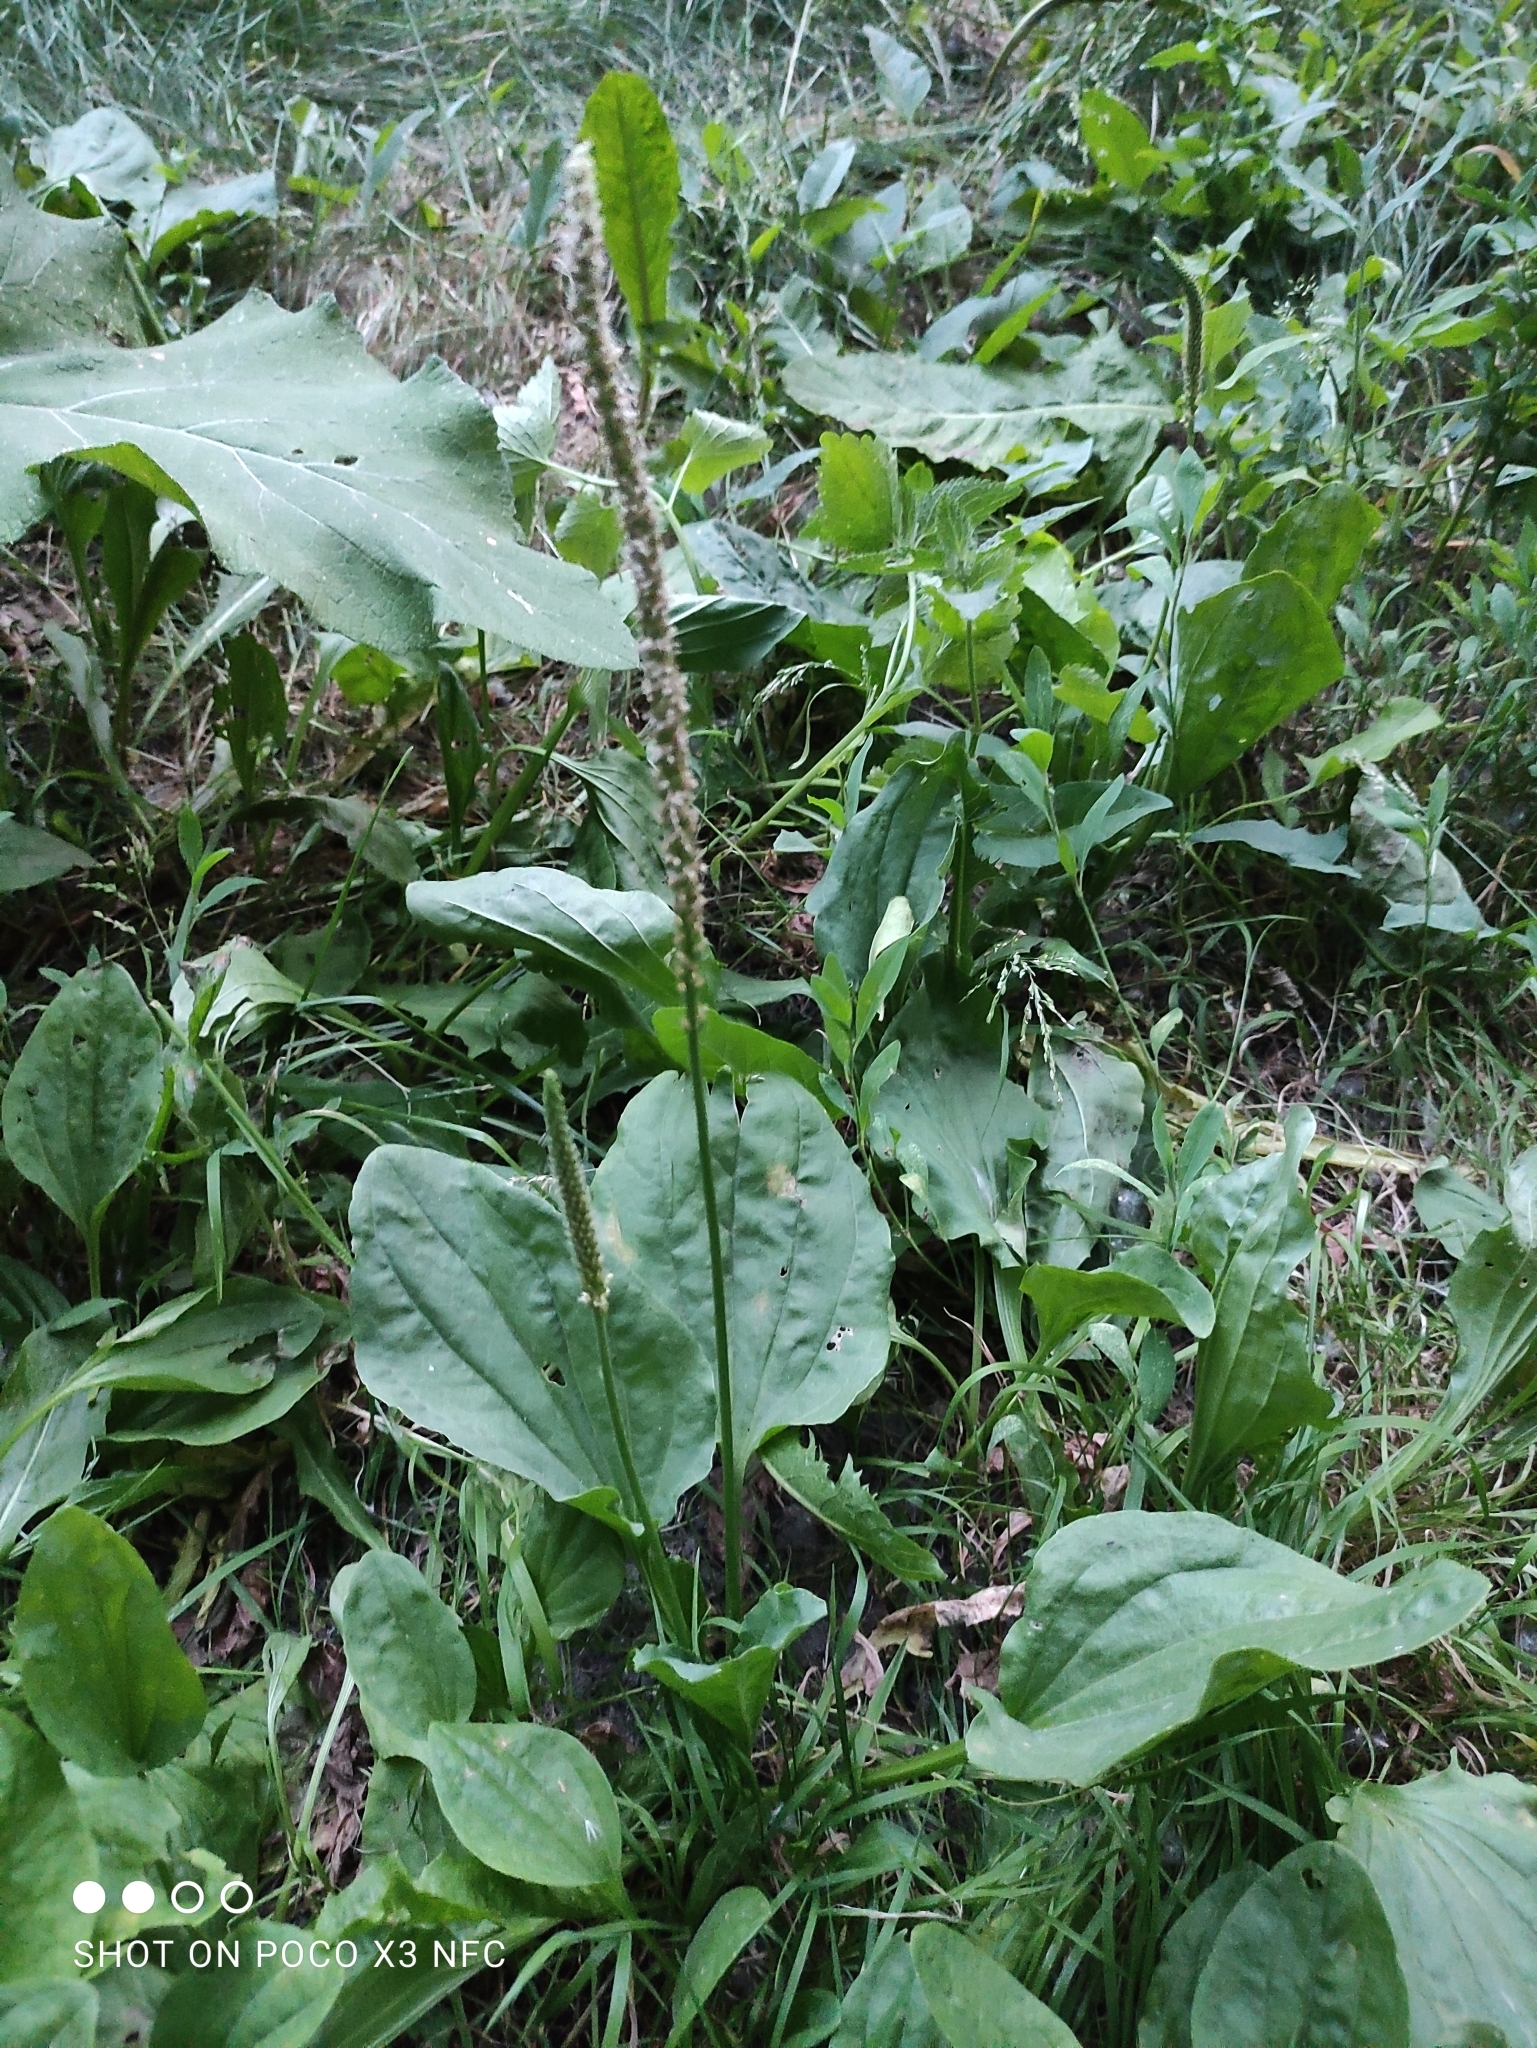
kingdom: Plantae
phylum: Tracheophyta
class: Magnoliopsida
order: Lamiales
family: Plantaginaceae
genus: Plantago
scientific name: Plantago major
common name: Common plantain
